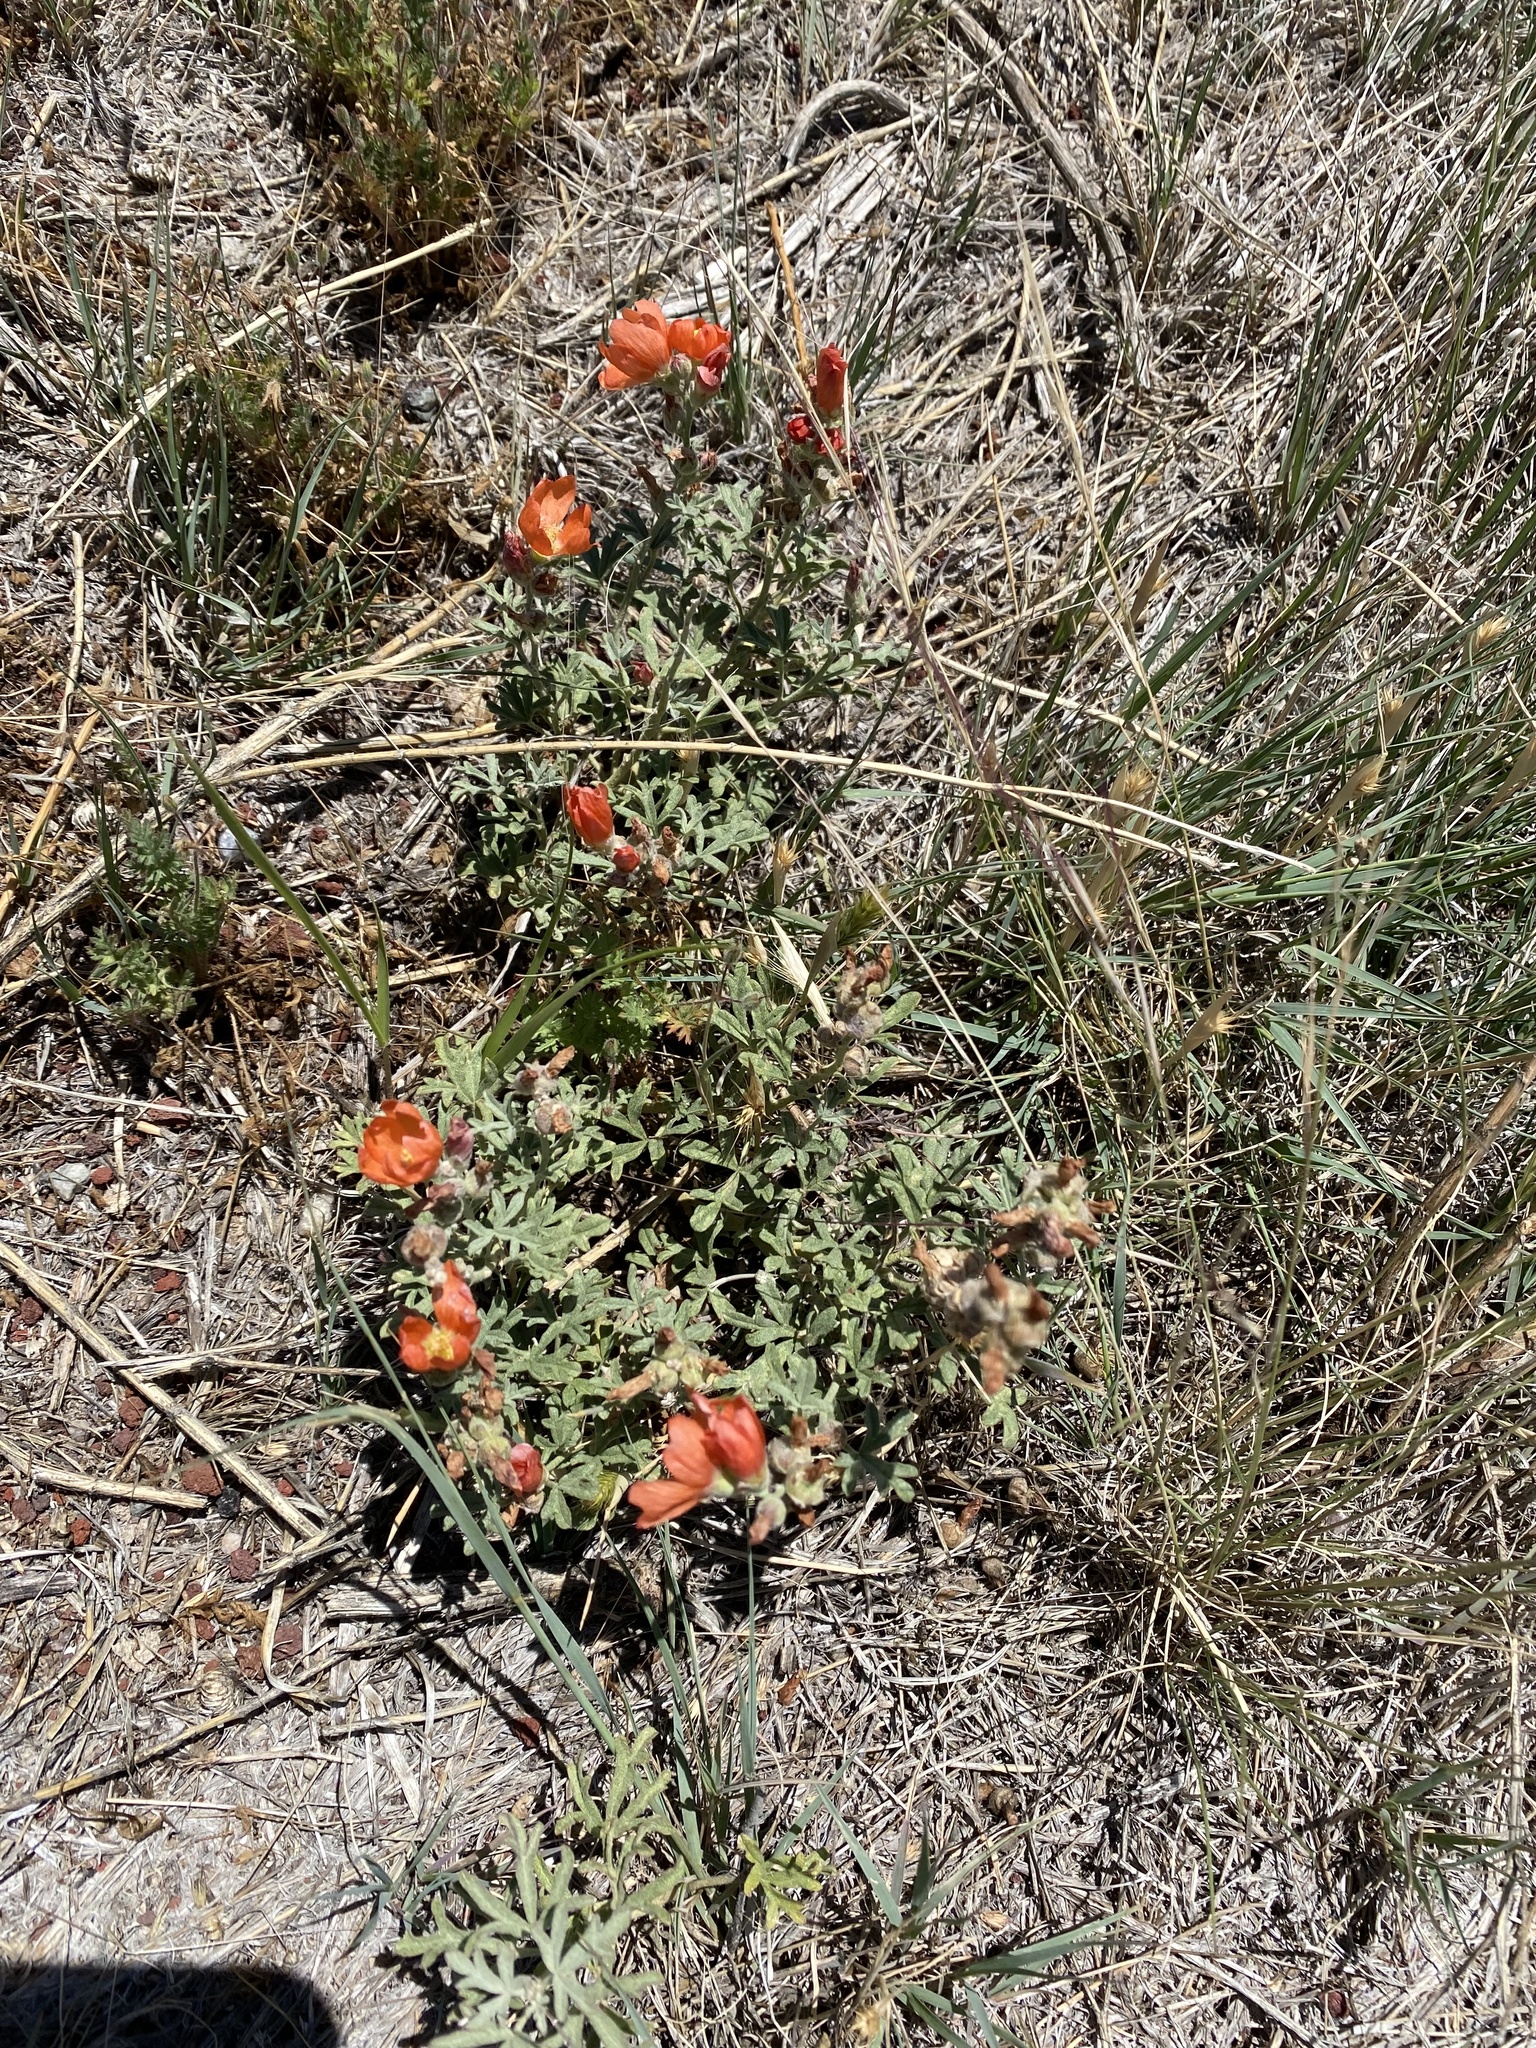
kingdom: Plantae
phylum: Tracheophyta
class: Magnoliopsida
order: Malvales
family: Malvaceae
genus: Sphaeralcea
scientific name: Sphaeralcea coccinea
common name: Moss-rose
